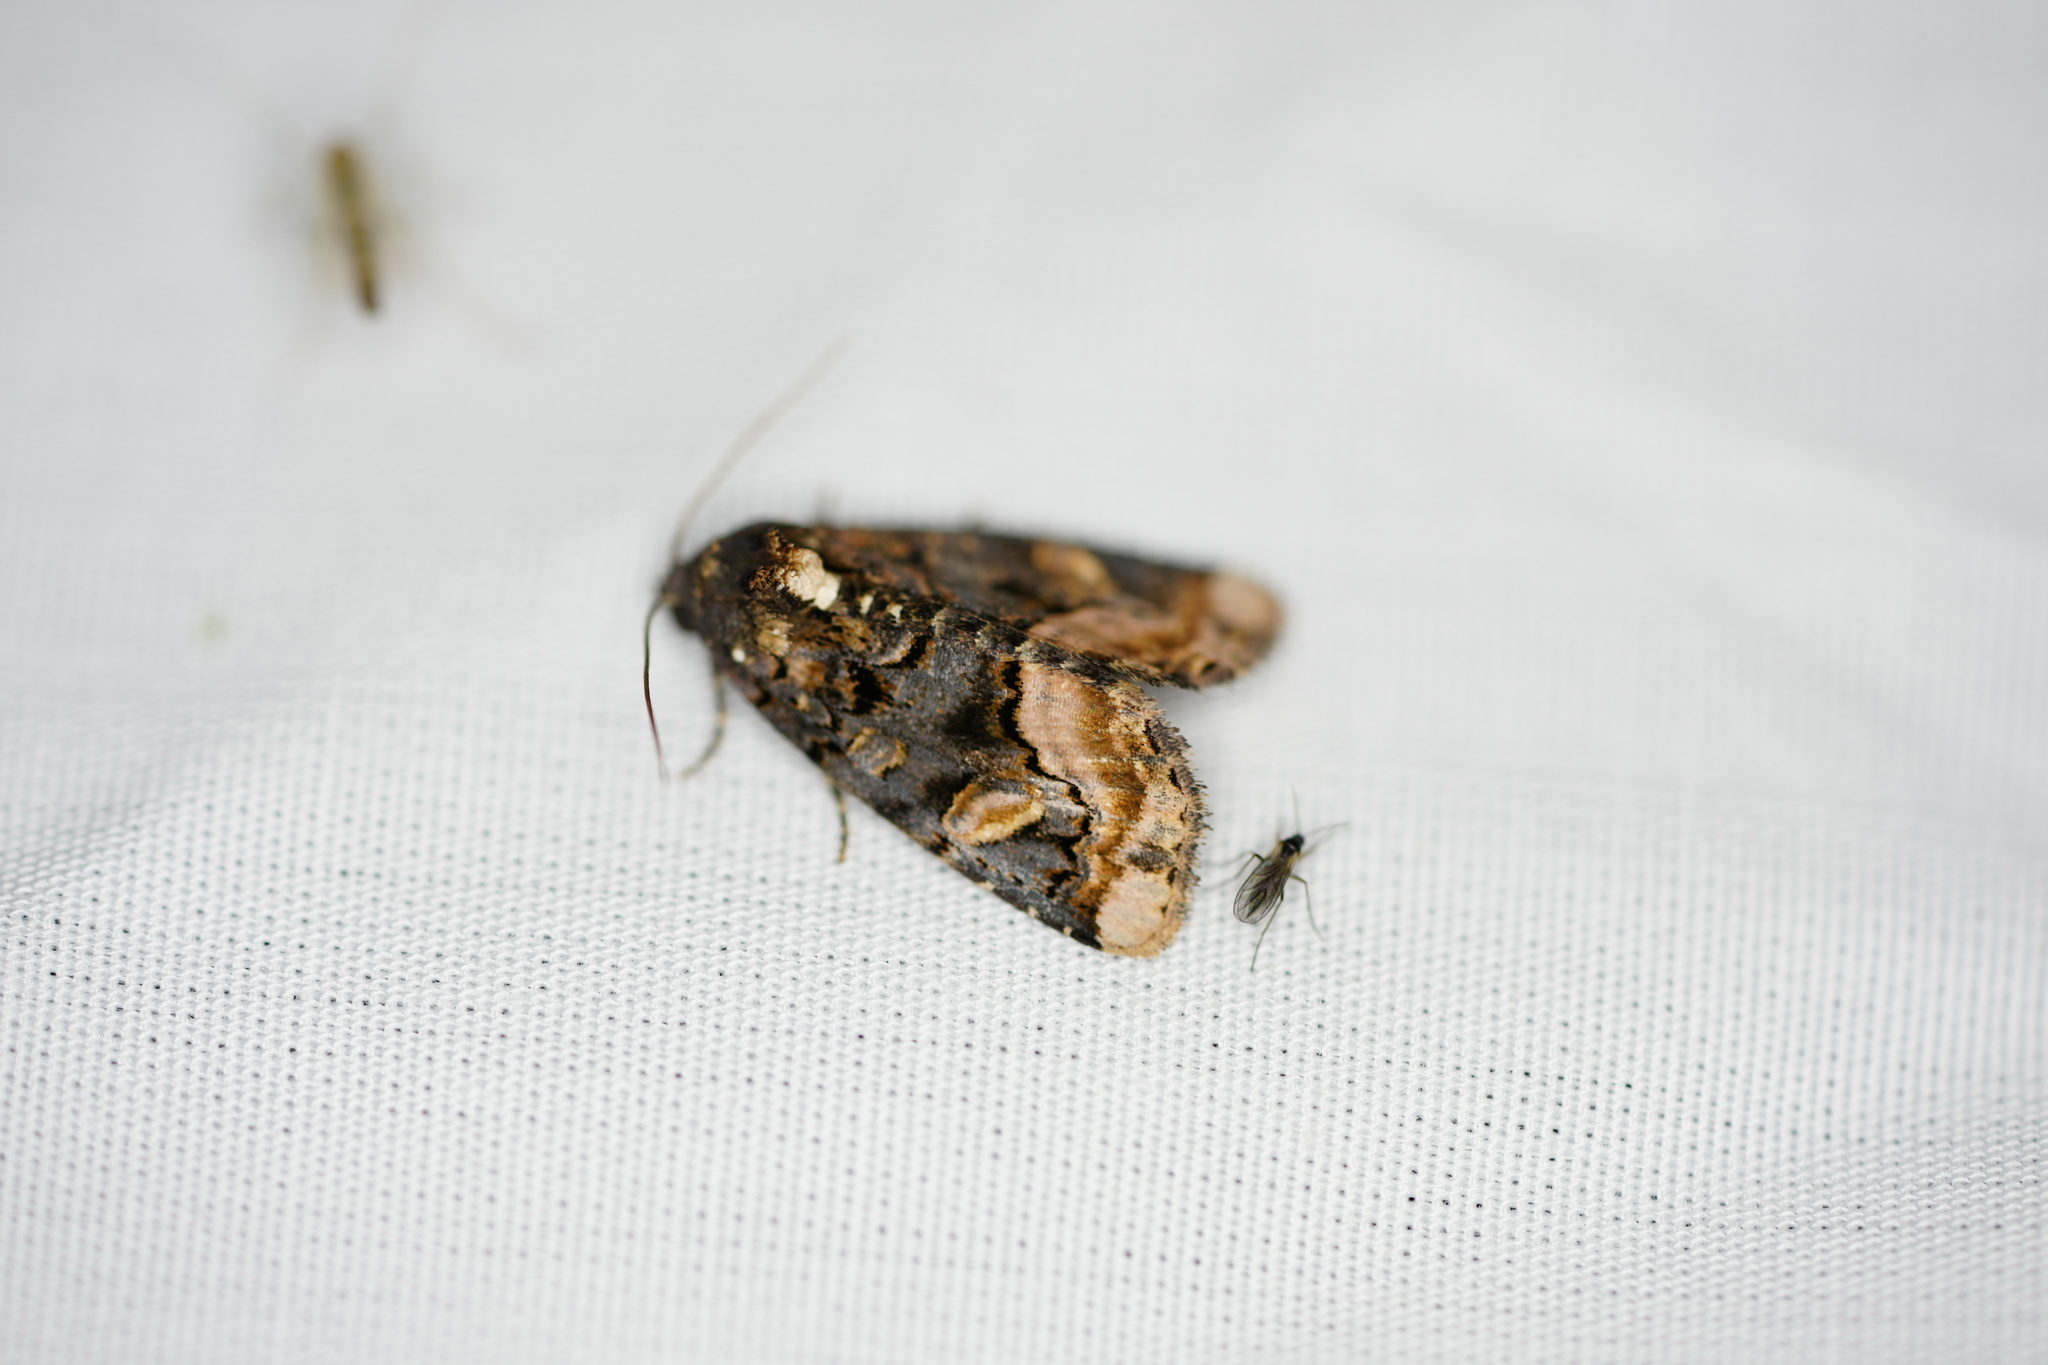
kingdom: Animalia
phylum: Arthropoda
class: Insecta
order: Lepidoptera
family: Noctuidae
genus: Homophoberia
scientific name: Homophoberia apicosa
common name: Black wedge-spot
